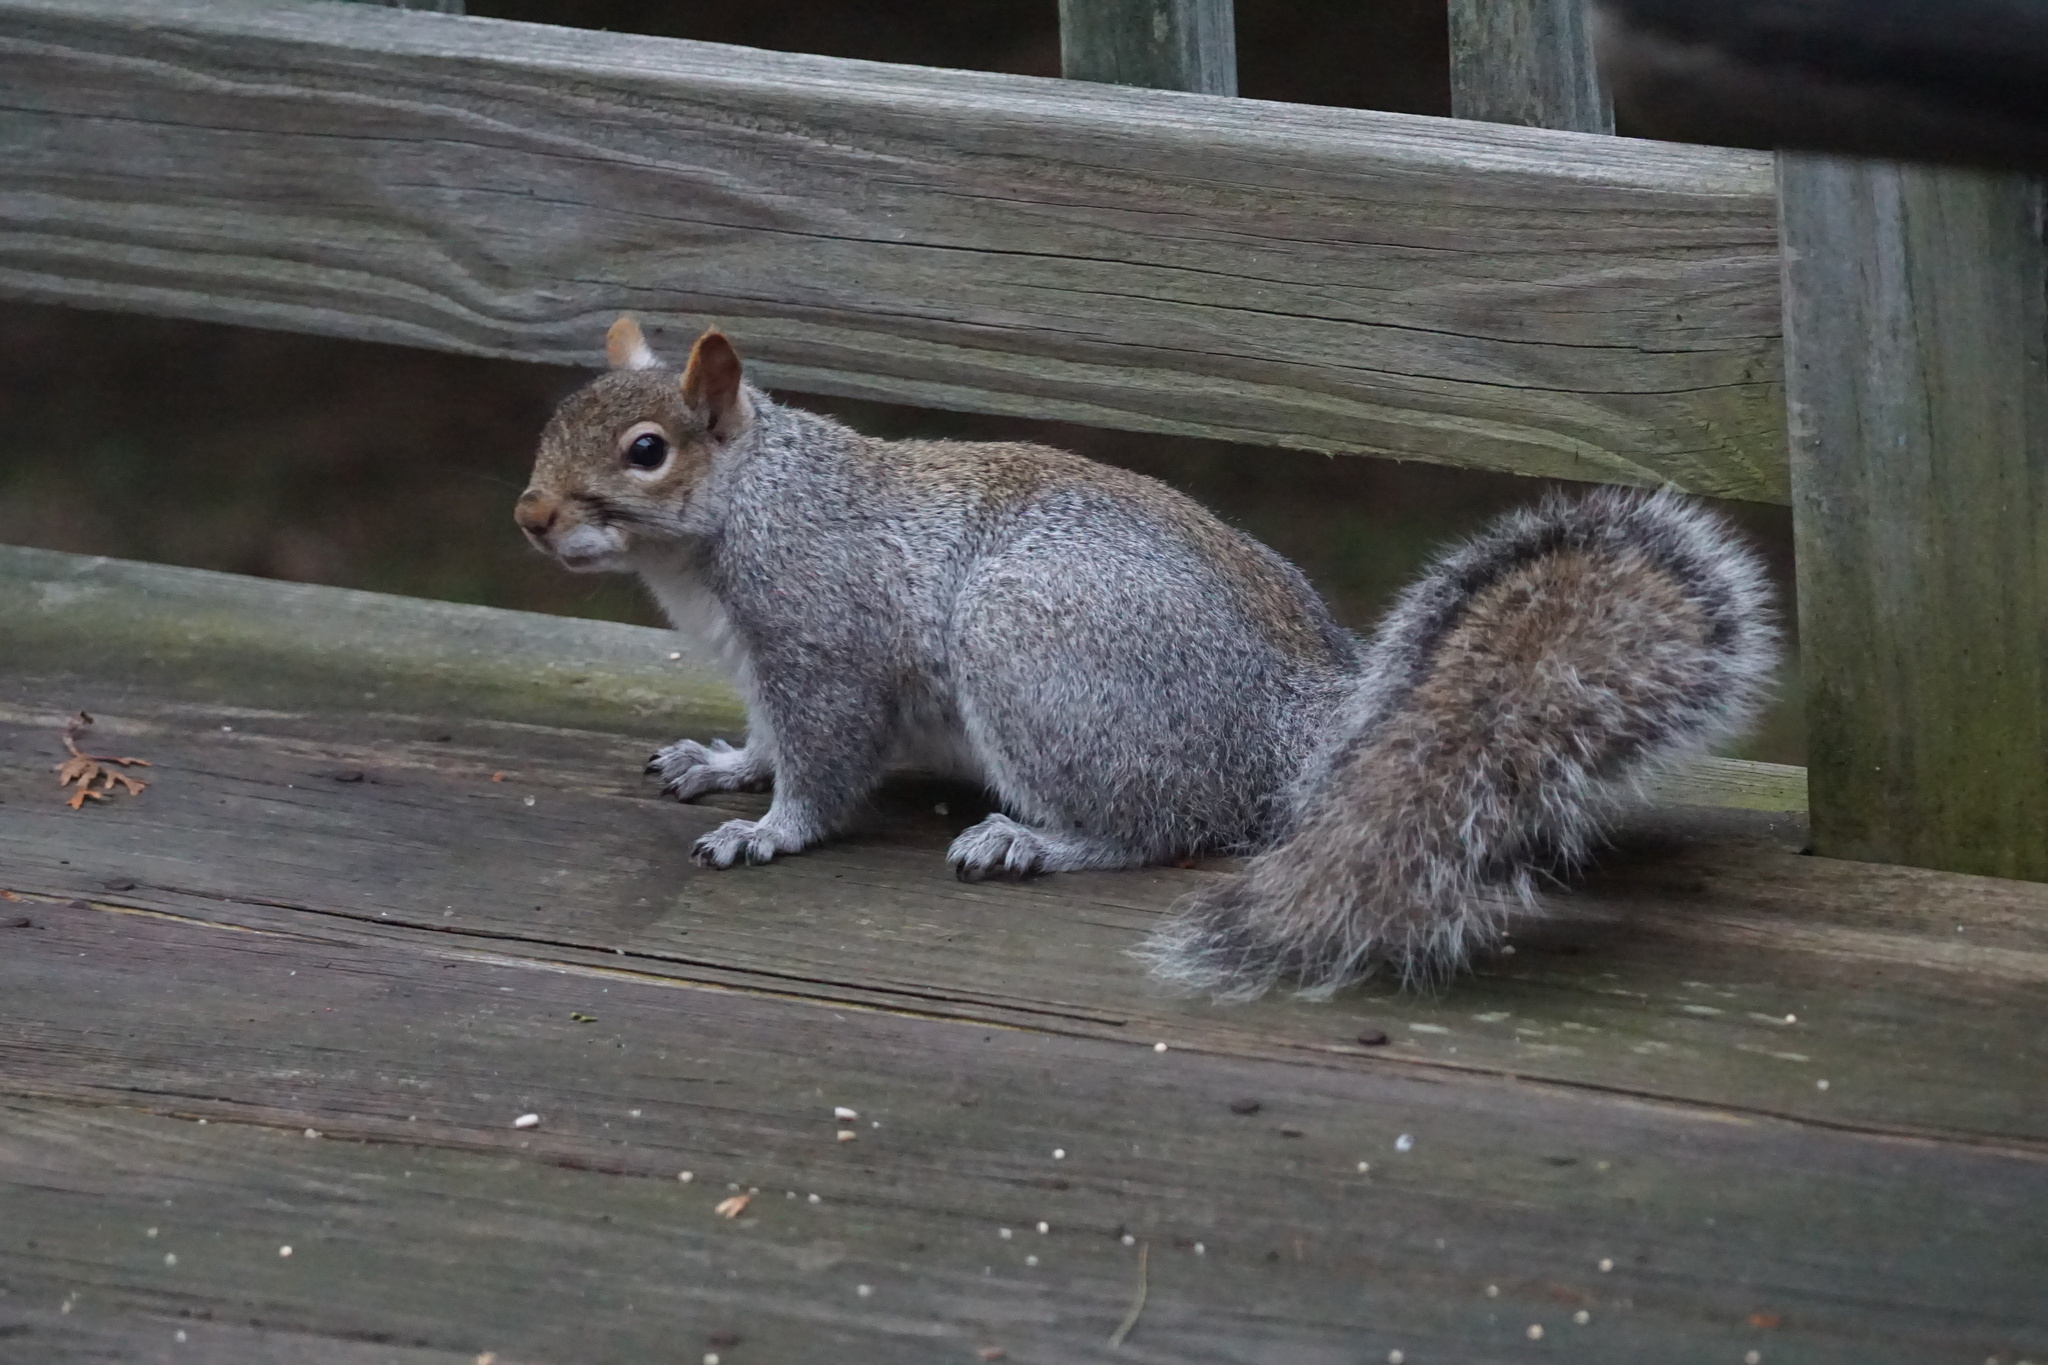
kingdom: Animalia
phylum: Chordata
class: Mammalia
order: Rodentia
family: Sciuridae
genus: Sciurus
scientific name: Sciurus carolinensis
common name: Eastern gray squirrel
